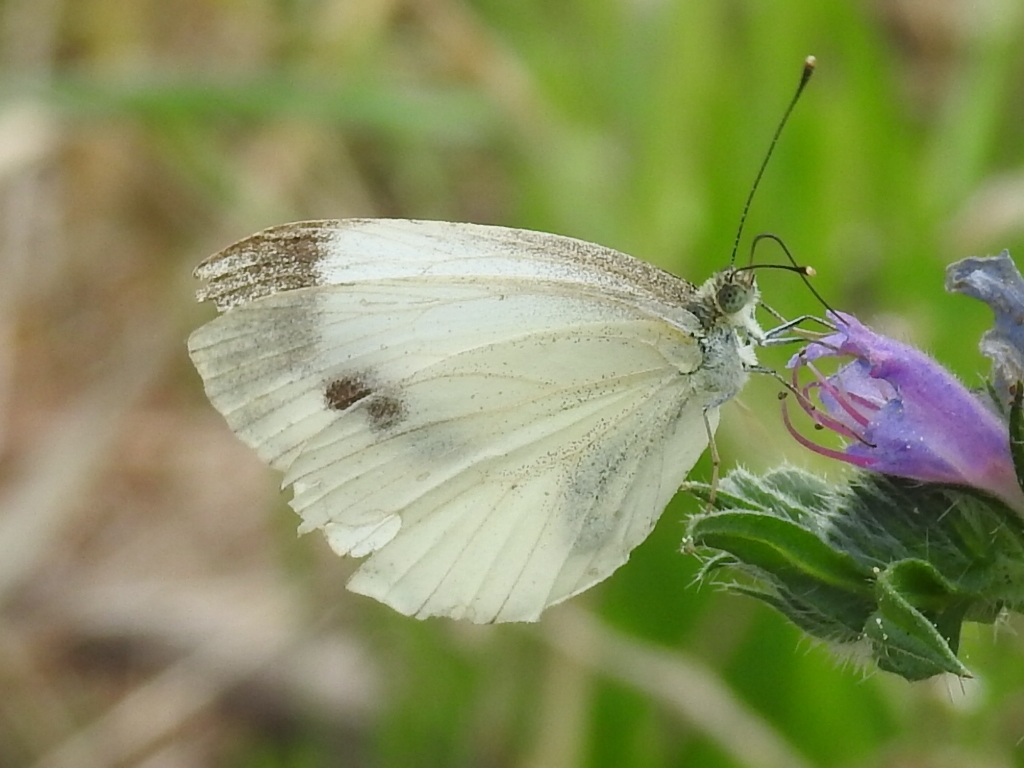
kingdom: Animalia
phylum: Arthropoda
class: Insecta
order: Lepidoptera
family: Pieridae
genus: Pieris
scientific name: Pieris rapae
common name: Small white
